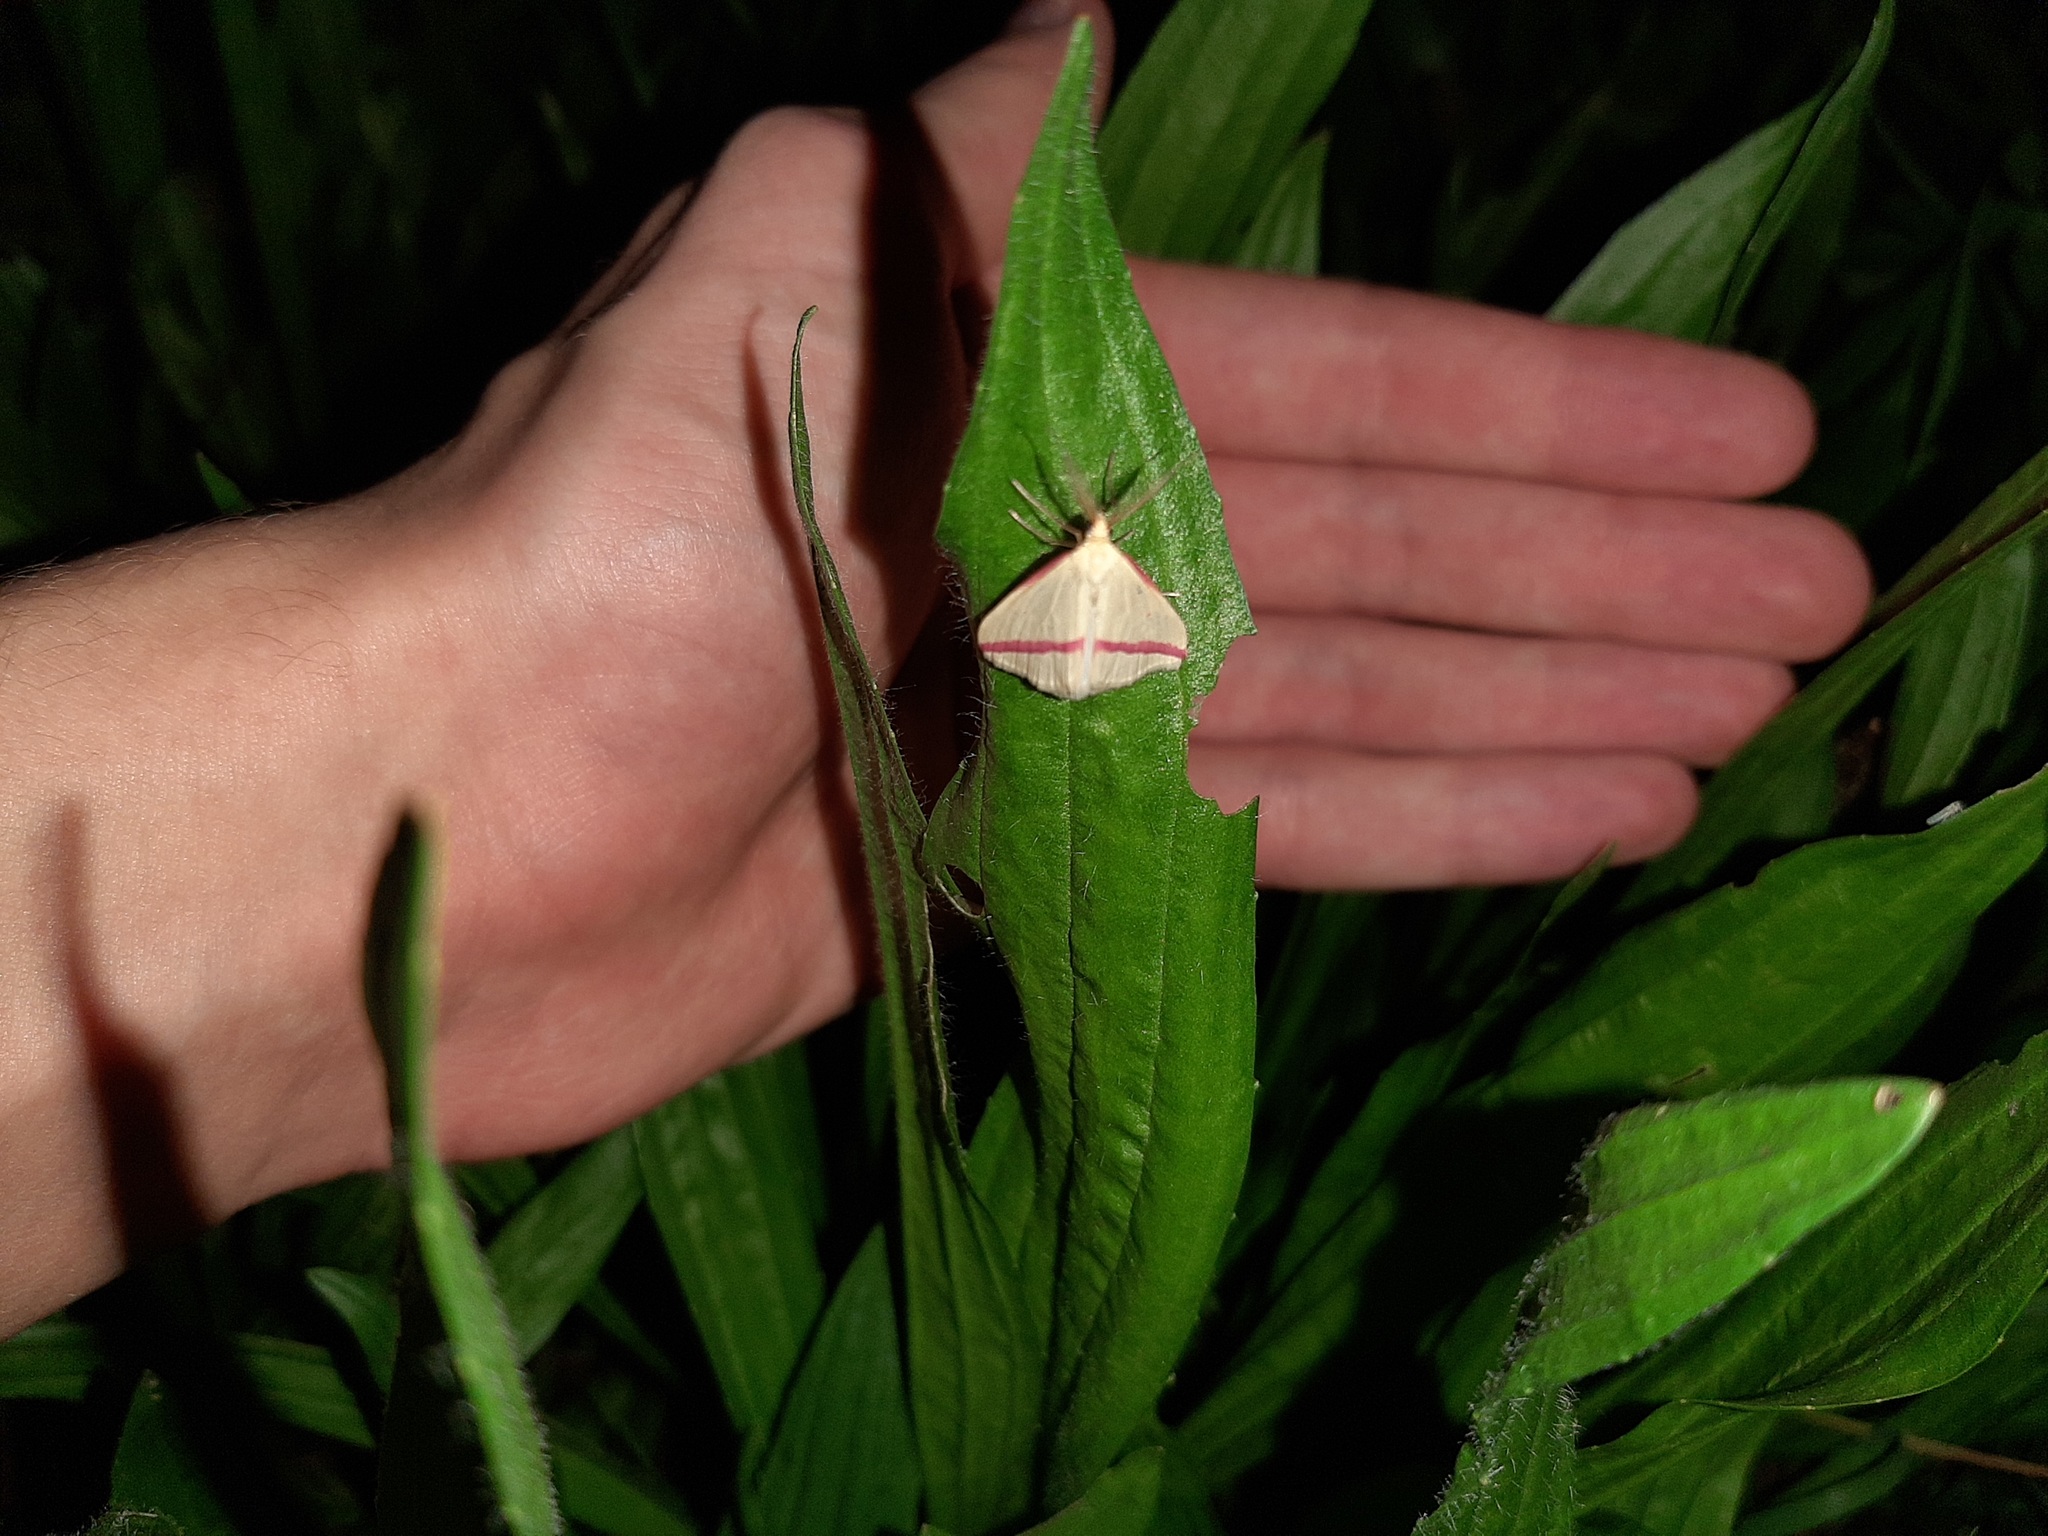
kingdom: Animalia
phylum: Arthropoda
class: Insecta
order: Lepidoptera
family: Geometridae
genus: Rhodometra
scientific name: Rhodometra sacraria
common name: Vestal
